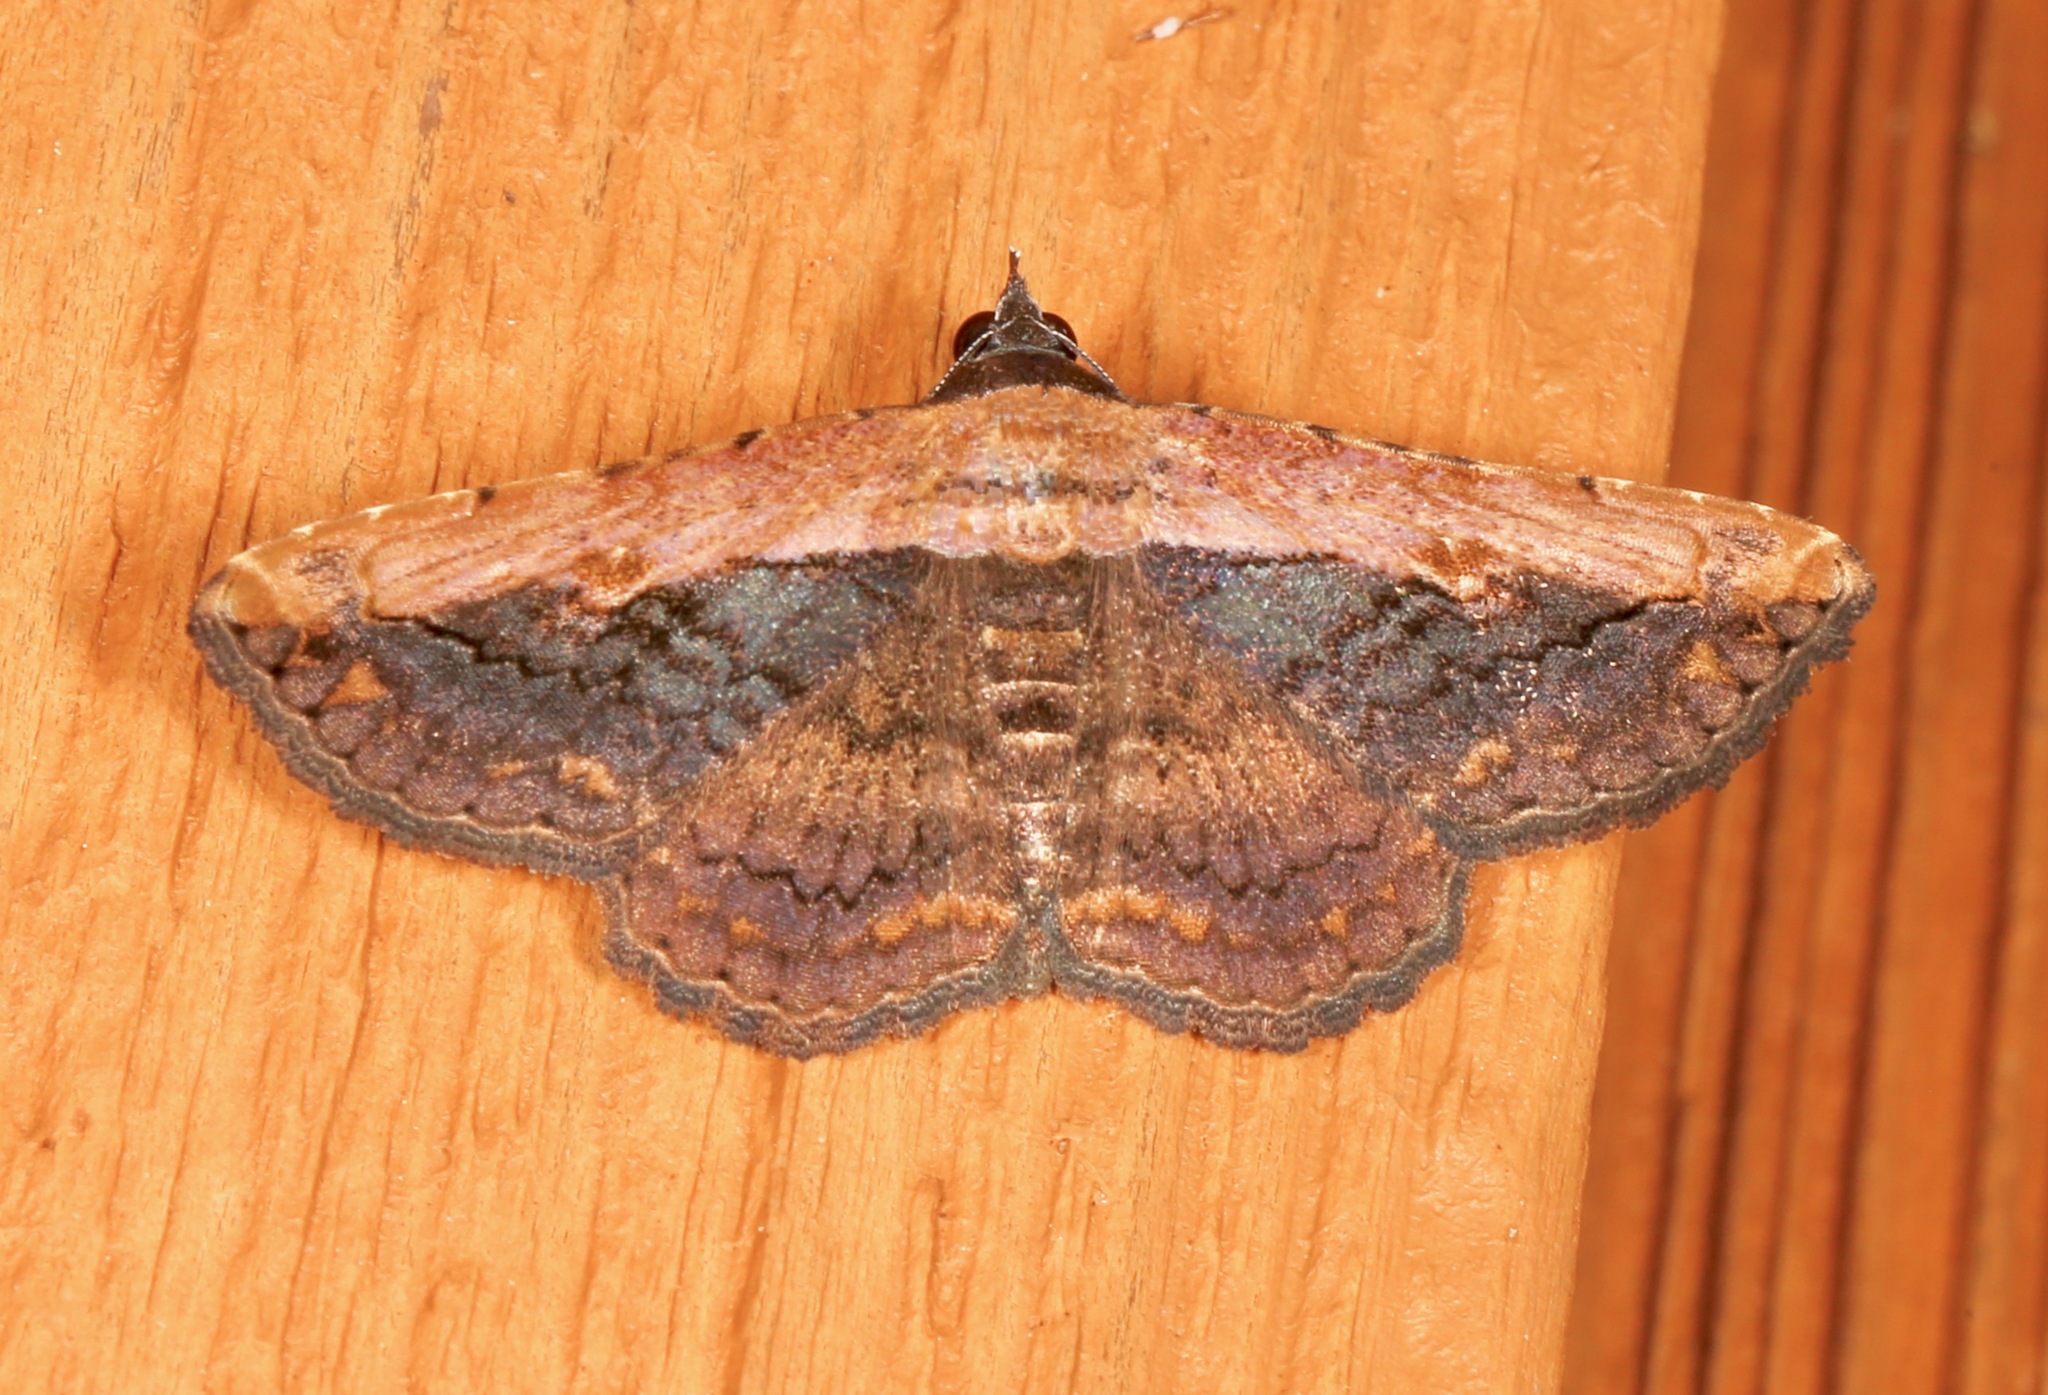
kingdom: Animalia
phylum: Arthropoda
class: Insecta
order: Lepidoptera
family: Erebidae
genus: Selenisa
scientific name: Selenisa sueroides
